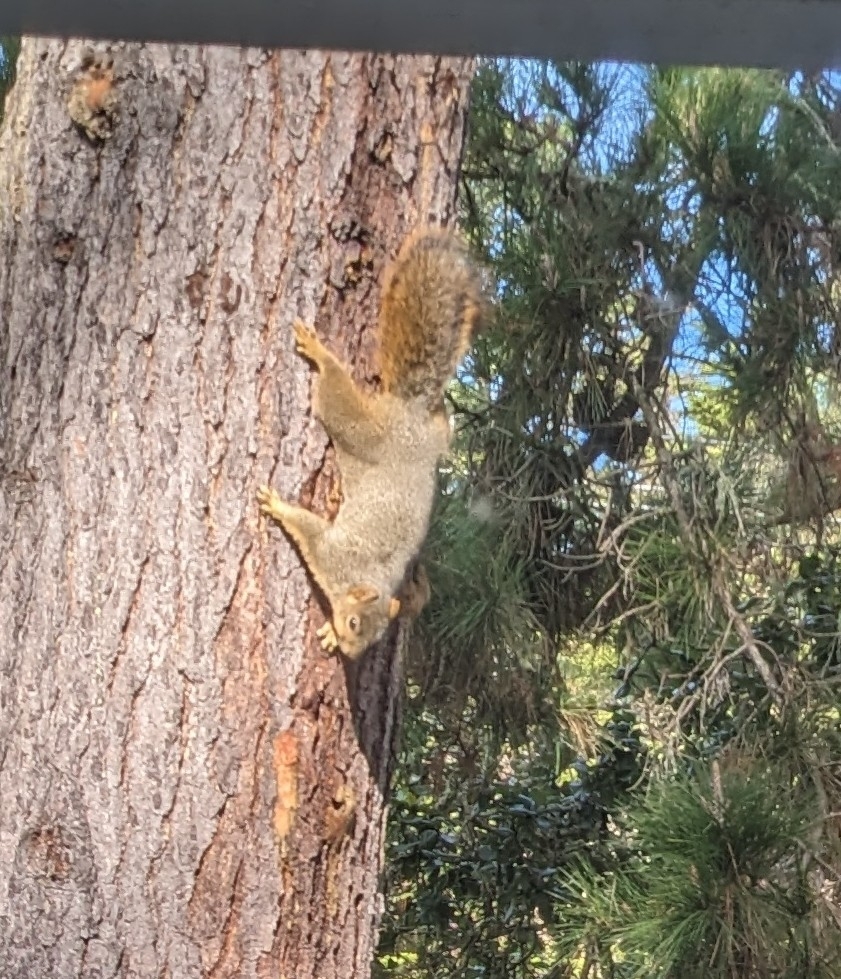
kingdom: Animalia
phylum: Chordata
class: Mammalia
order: Rodentia
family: Sciuridae
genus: Sciurus
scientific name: Sciurus niger
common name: Fox squirrel
